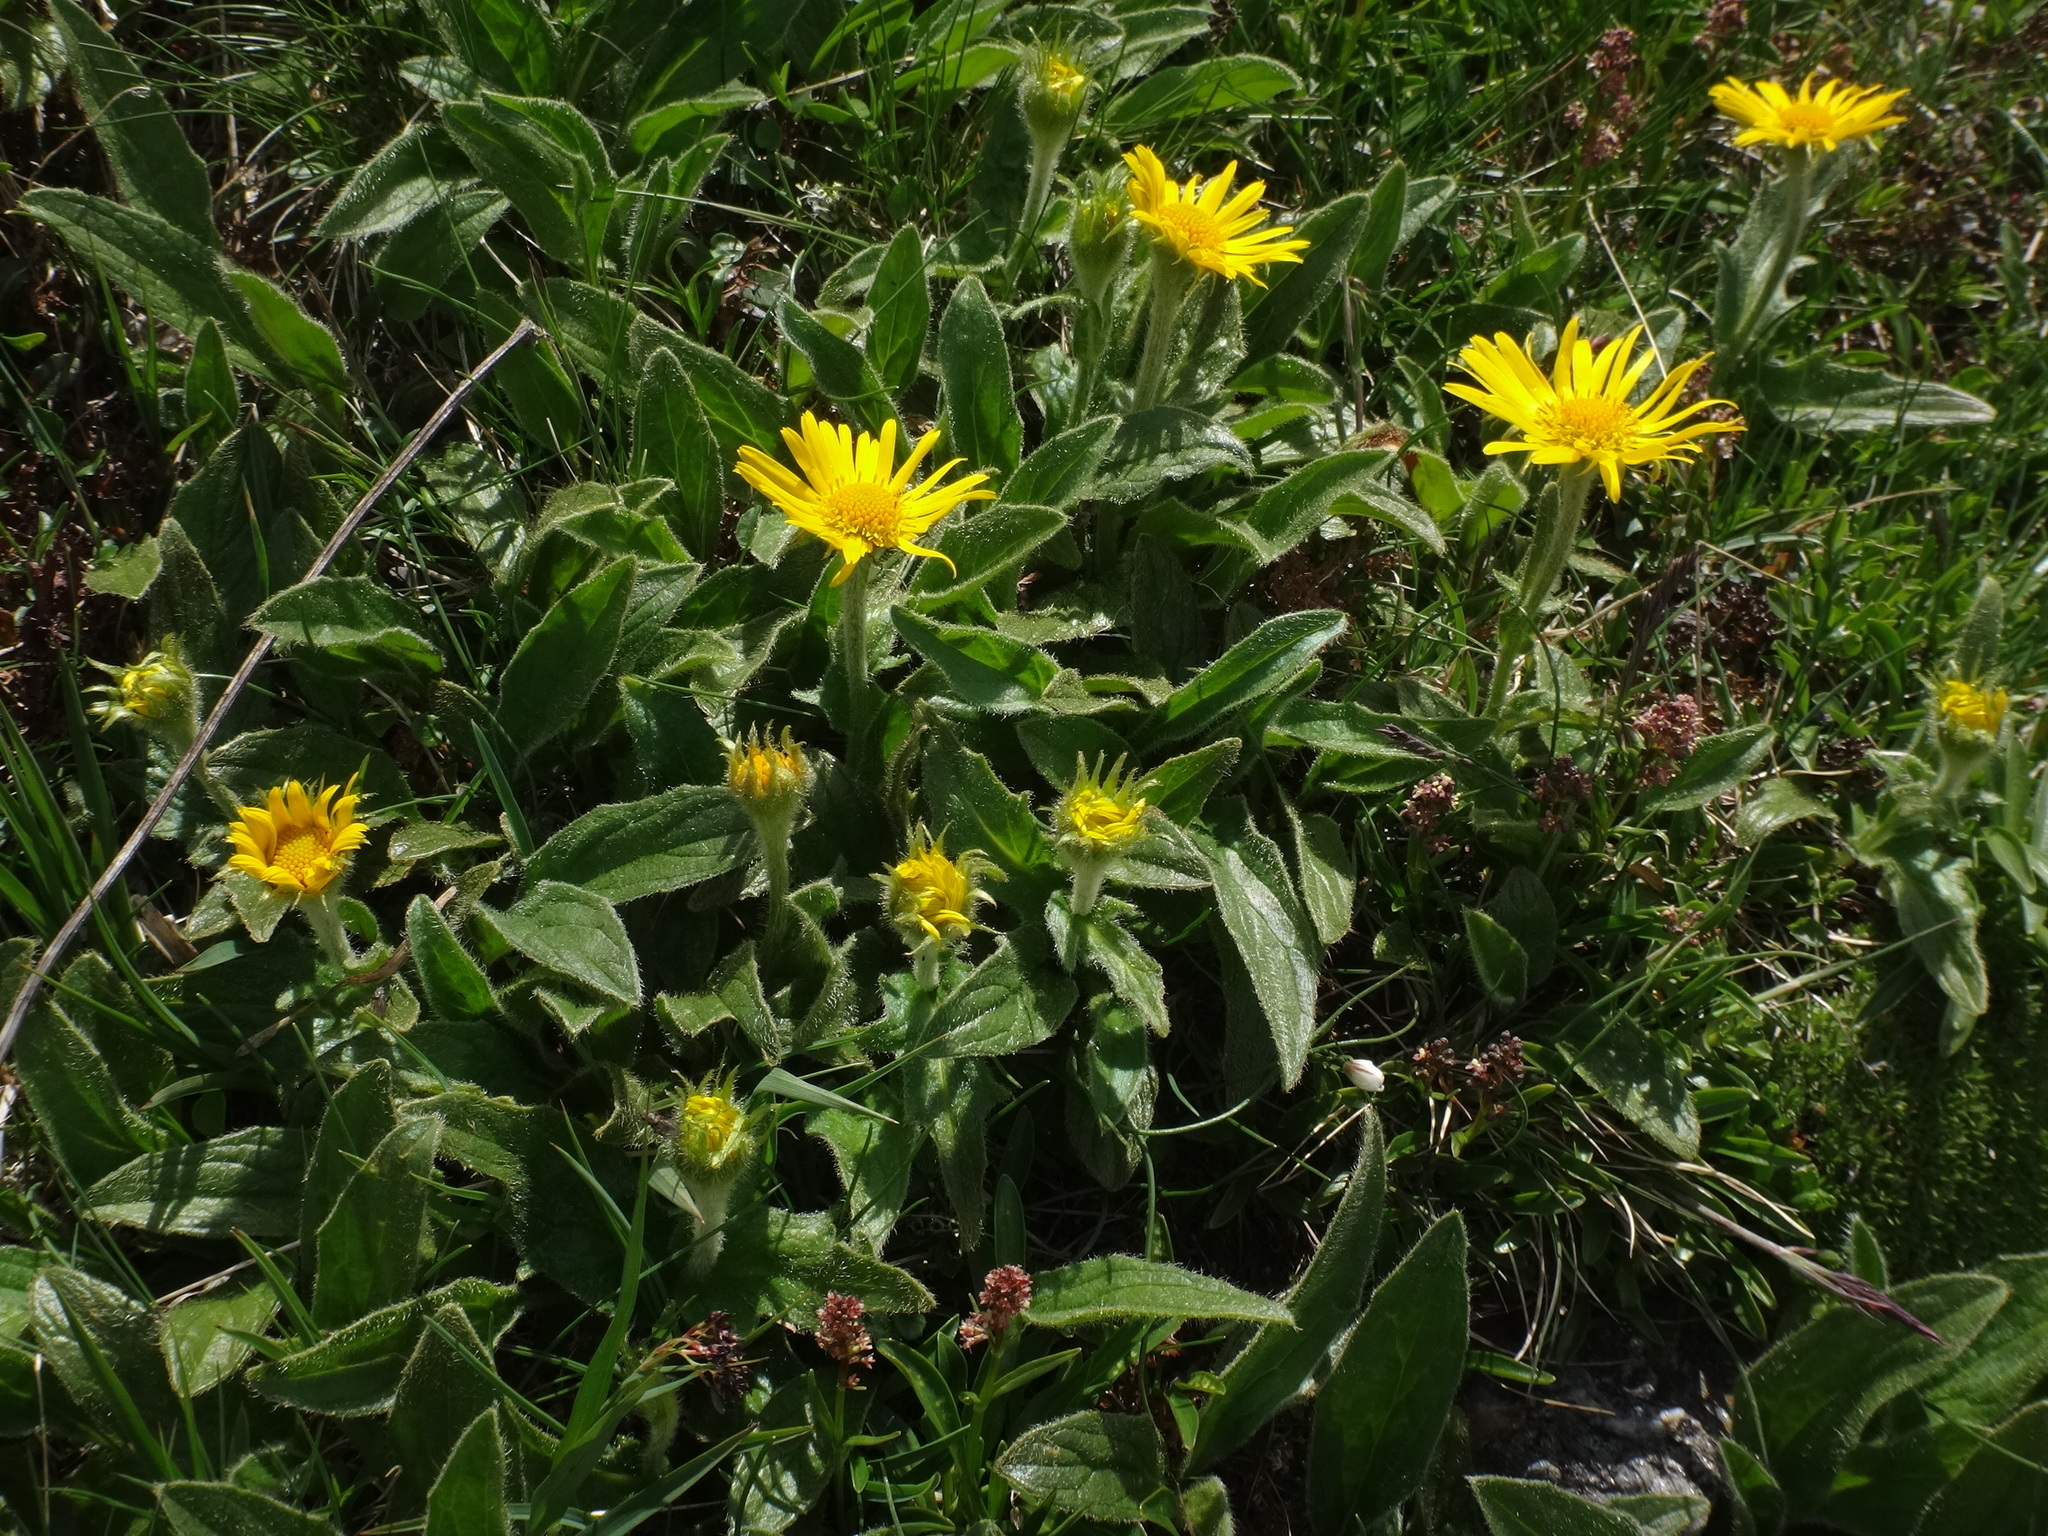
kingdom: Plantae
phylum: Tracheophyta
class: Magnoliopsida
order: Asterales
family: Asteraceae
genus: Doronicum
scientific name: Doronicum clusii
